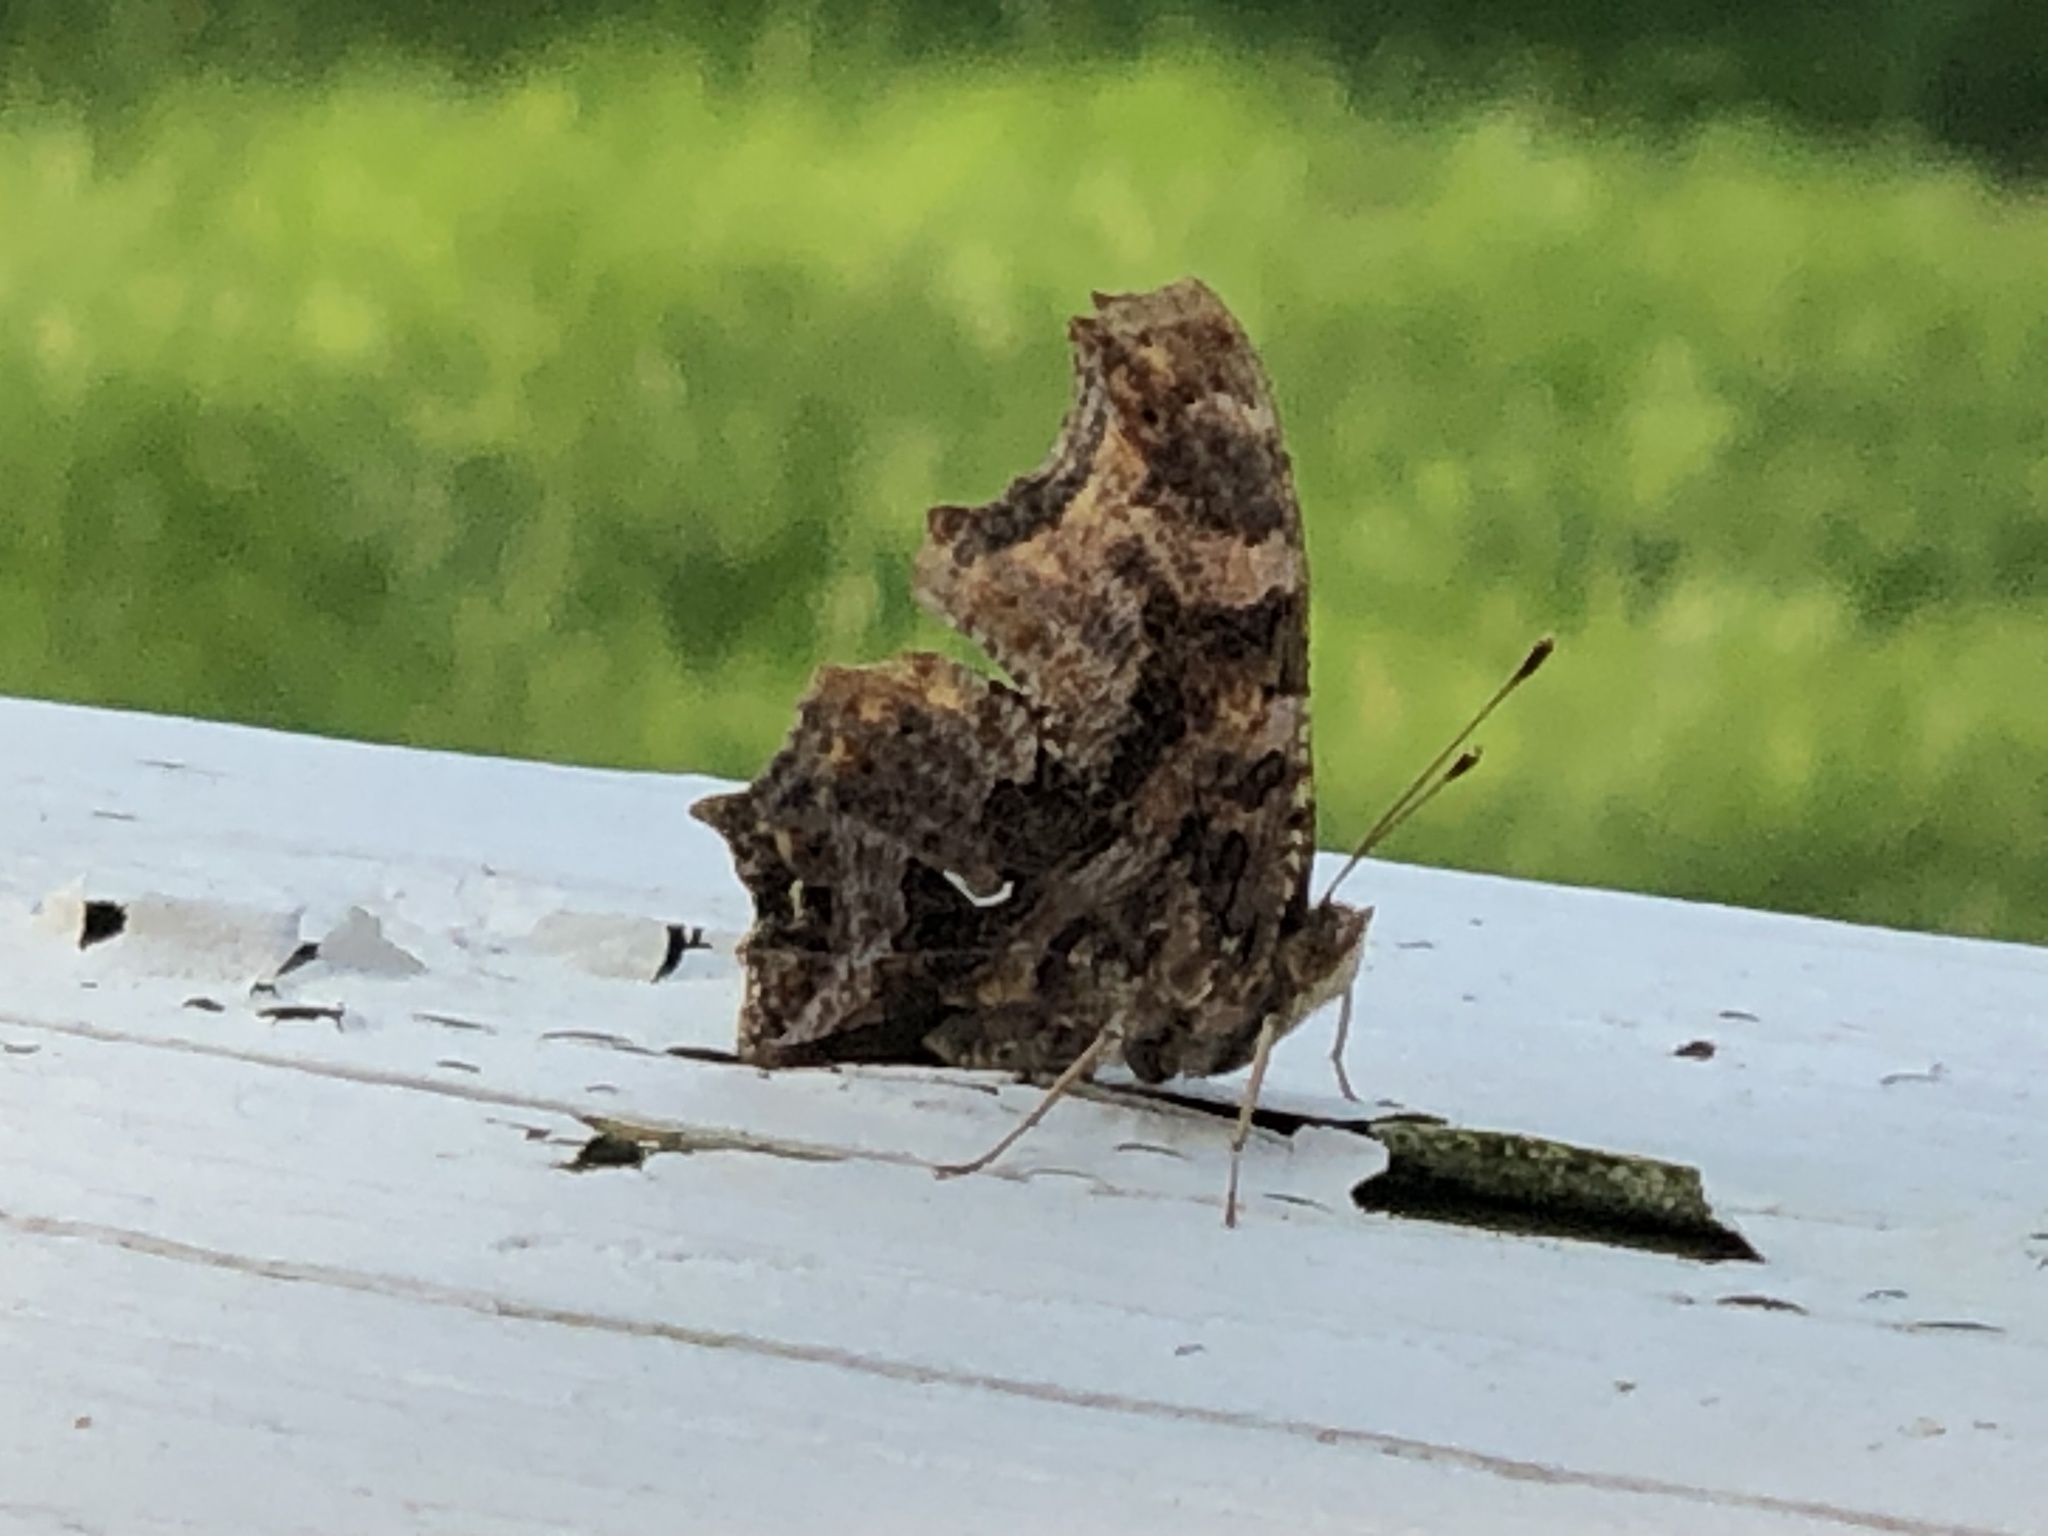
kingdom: Animalia
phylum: Arthropoda
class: Insecta
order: Lepidoptera
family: Nymphalidae
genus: Polygonia
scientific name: Polygonia comma
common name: Eastern comma
